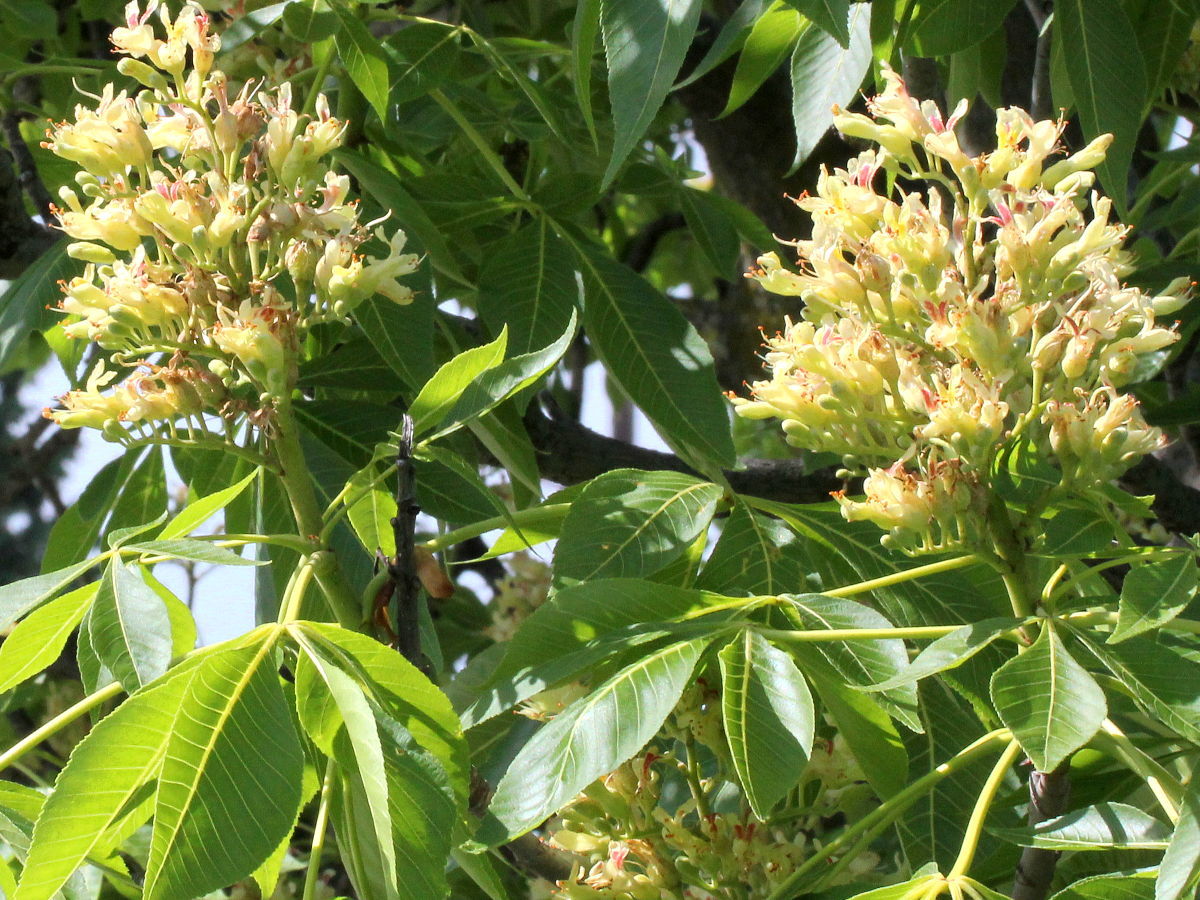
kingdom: Plantae
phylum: Tracheophyta
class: Magnoliopsida
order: Sapindales
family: Sapindaceae
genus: Aesculus
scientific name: Aesculus glabra
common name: Ohio buckeye
